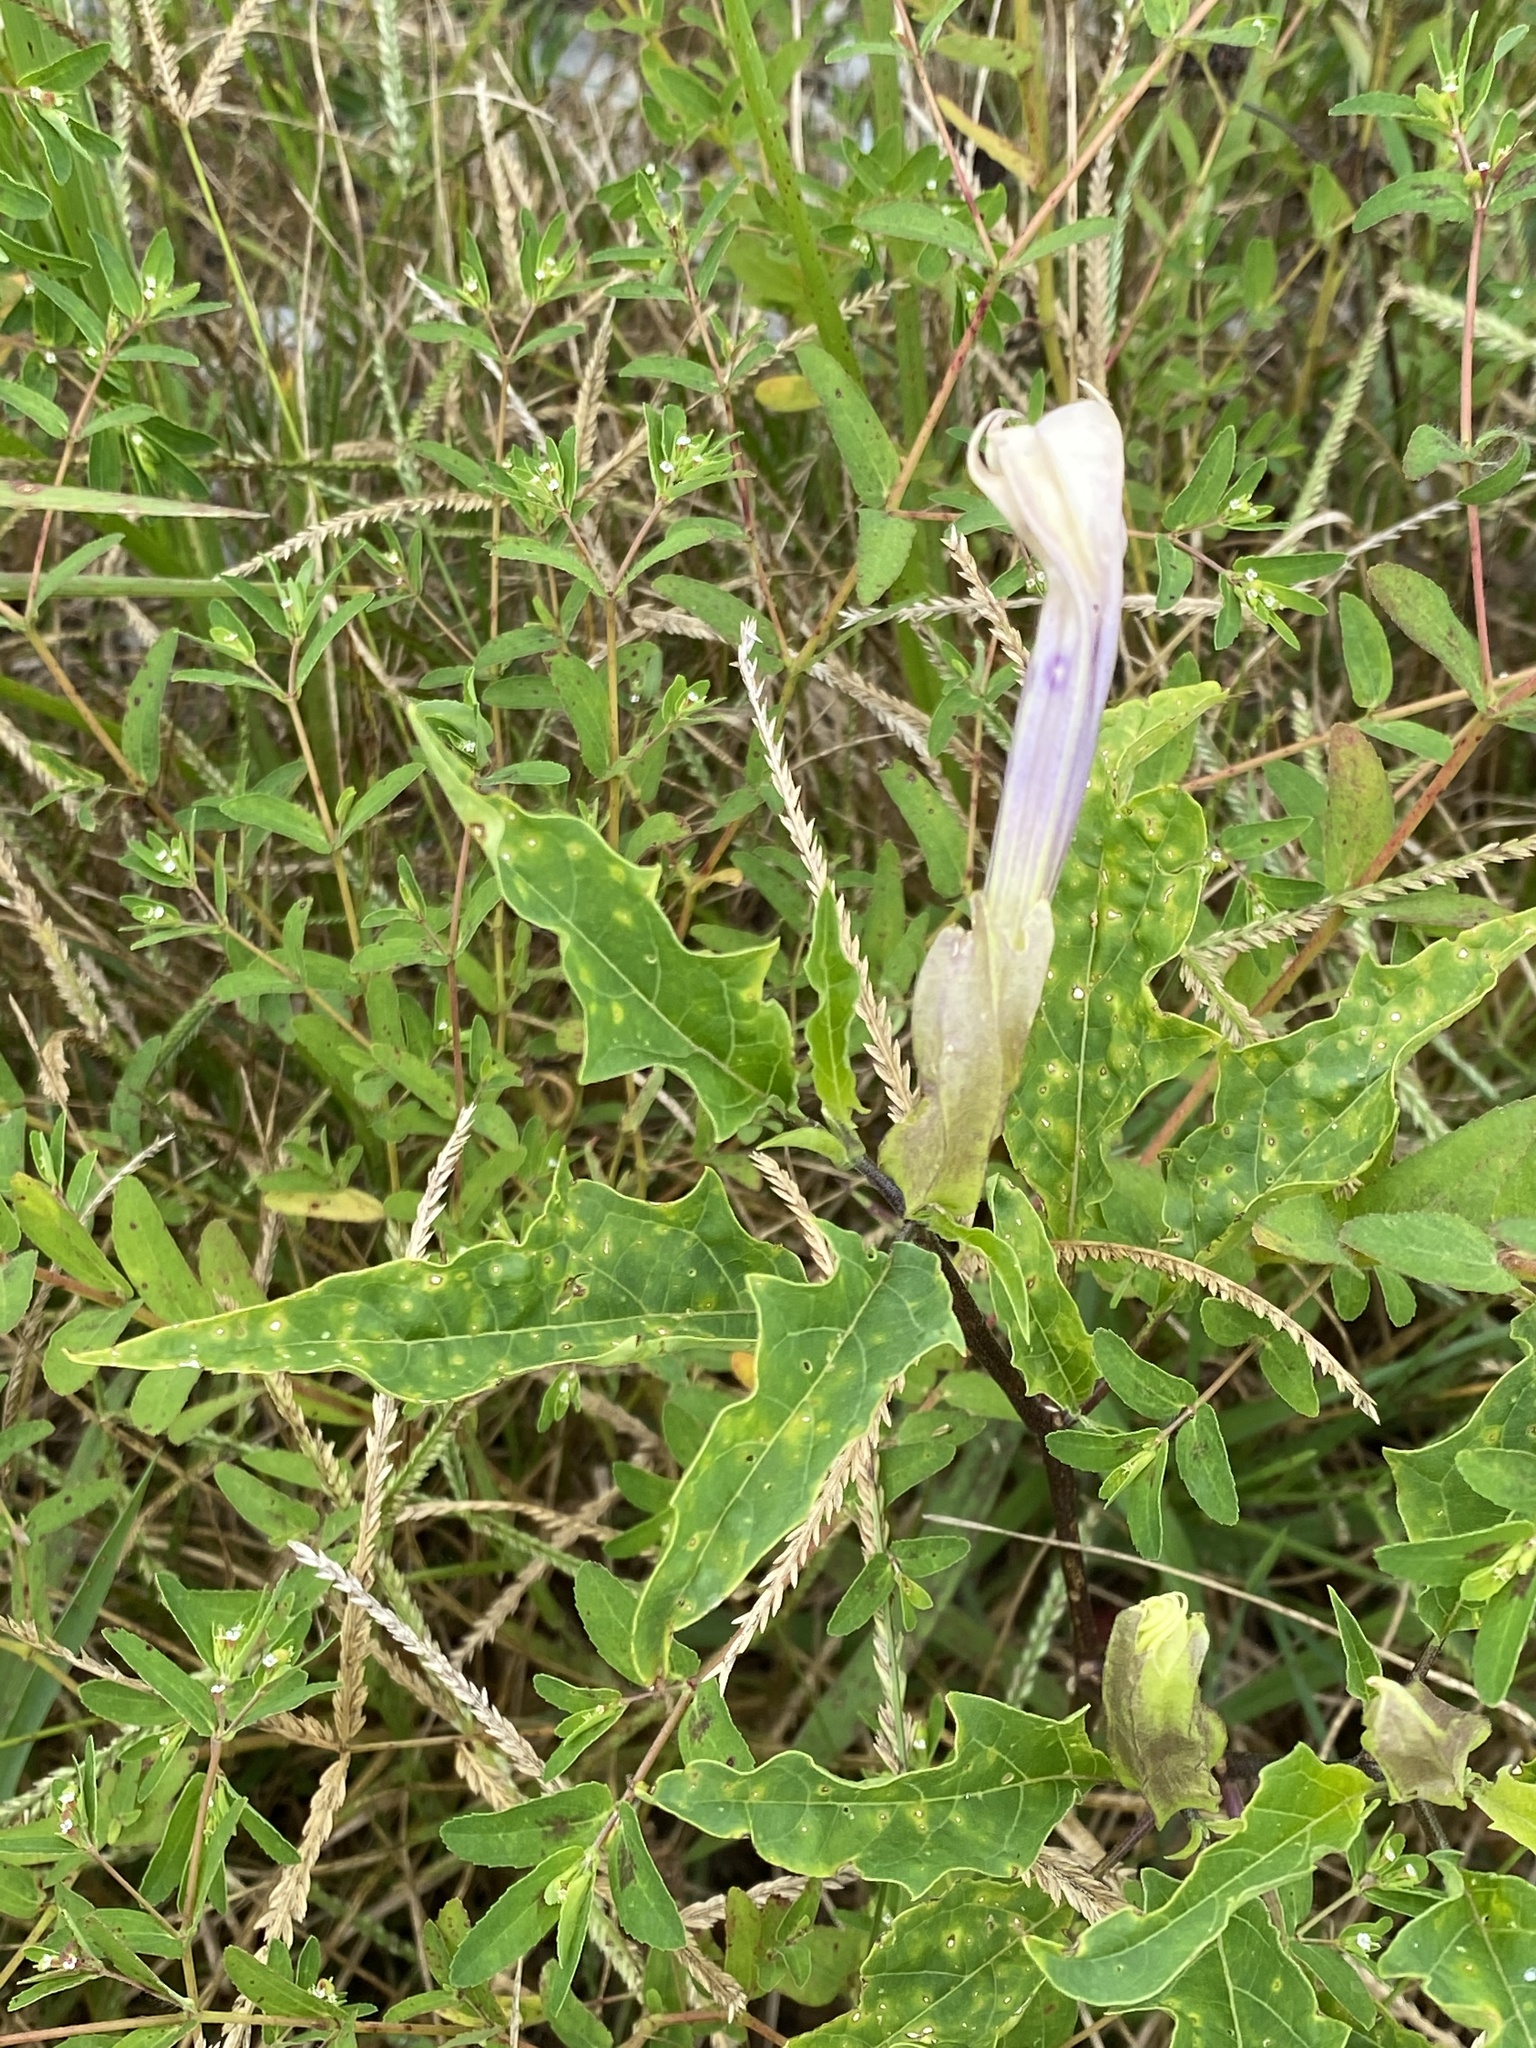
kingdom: Plantae
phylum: Tracheophyta
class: Magnoliopsida
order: Solanales
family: Solanaceae
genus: Datura
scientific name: Datura stramonium
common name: Thorn-apple
